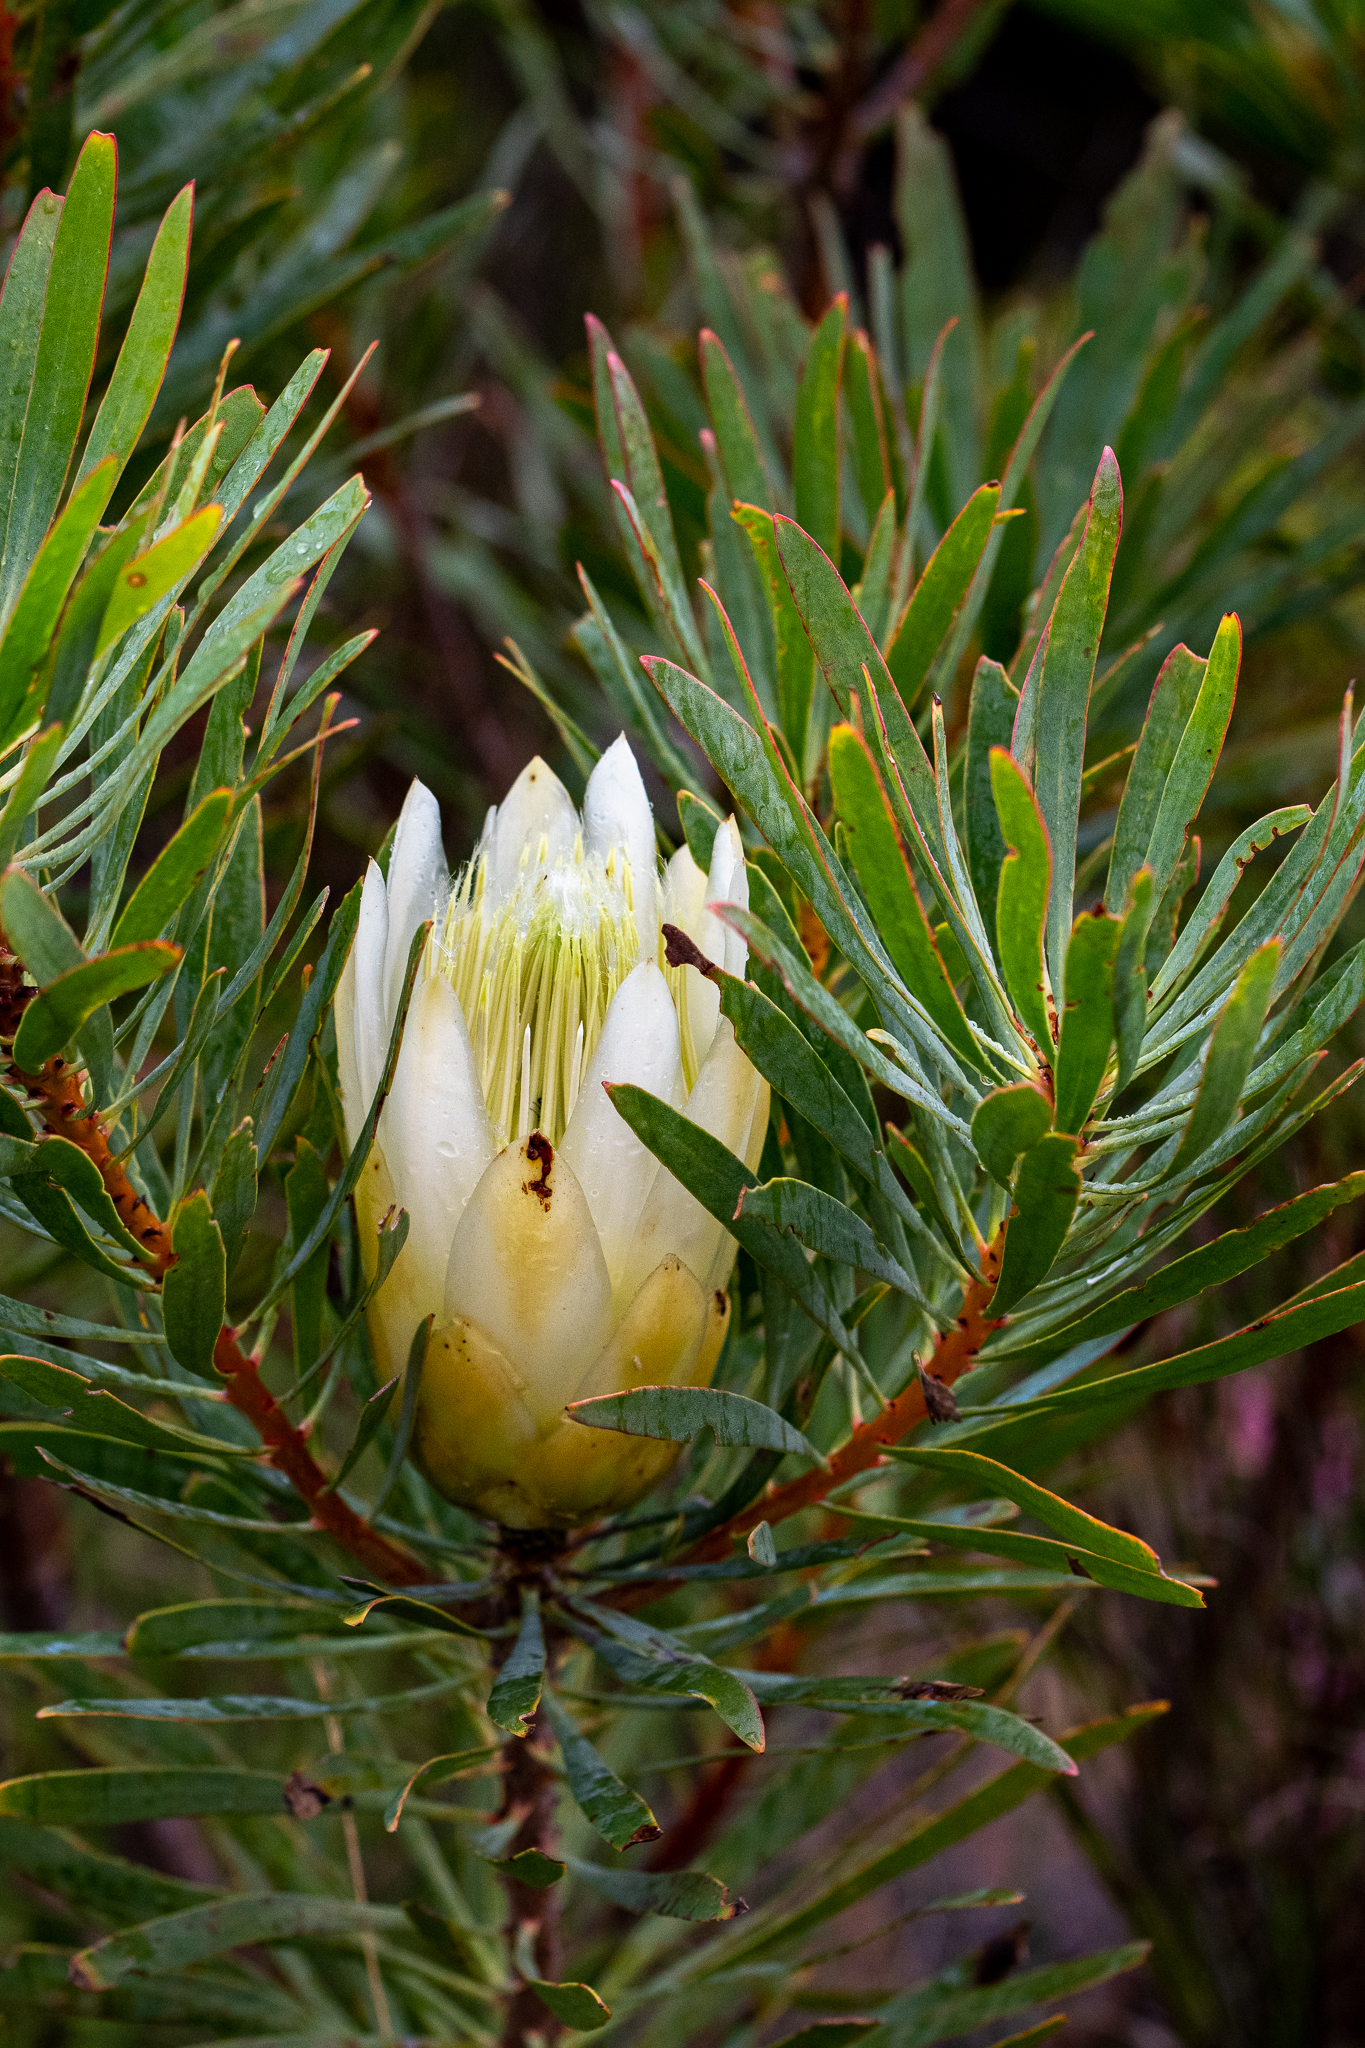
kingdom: Plantae
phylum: Tracheophyta
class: Magnoliopsida
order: Proteales
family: Proteaceae
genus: Protea
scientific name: Protea repens
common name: Sugarbush
